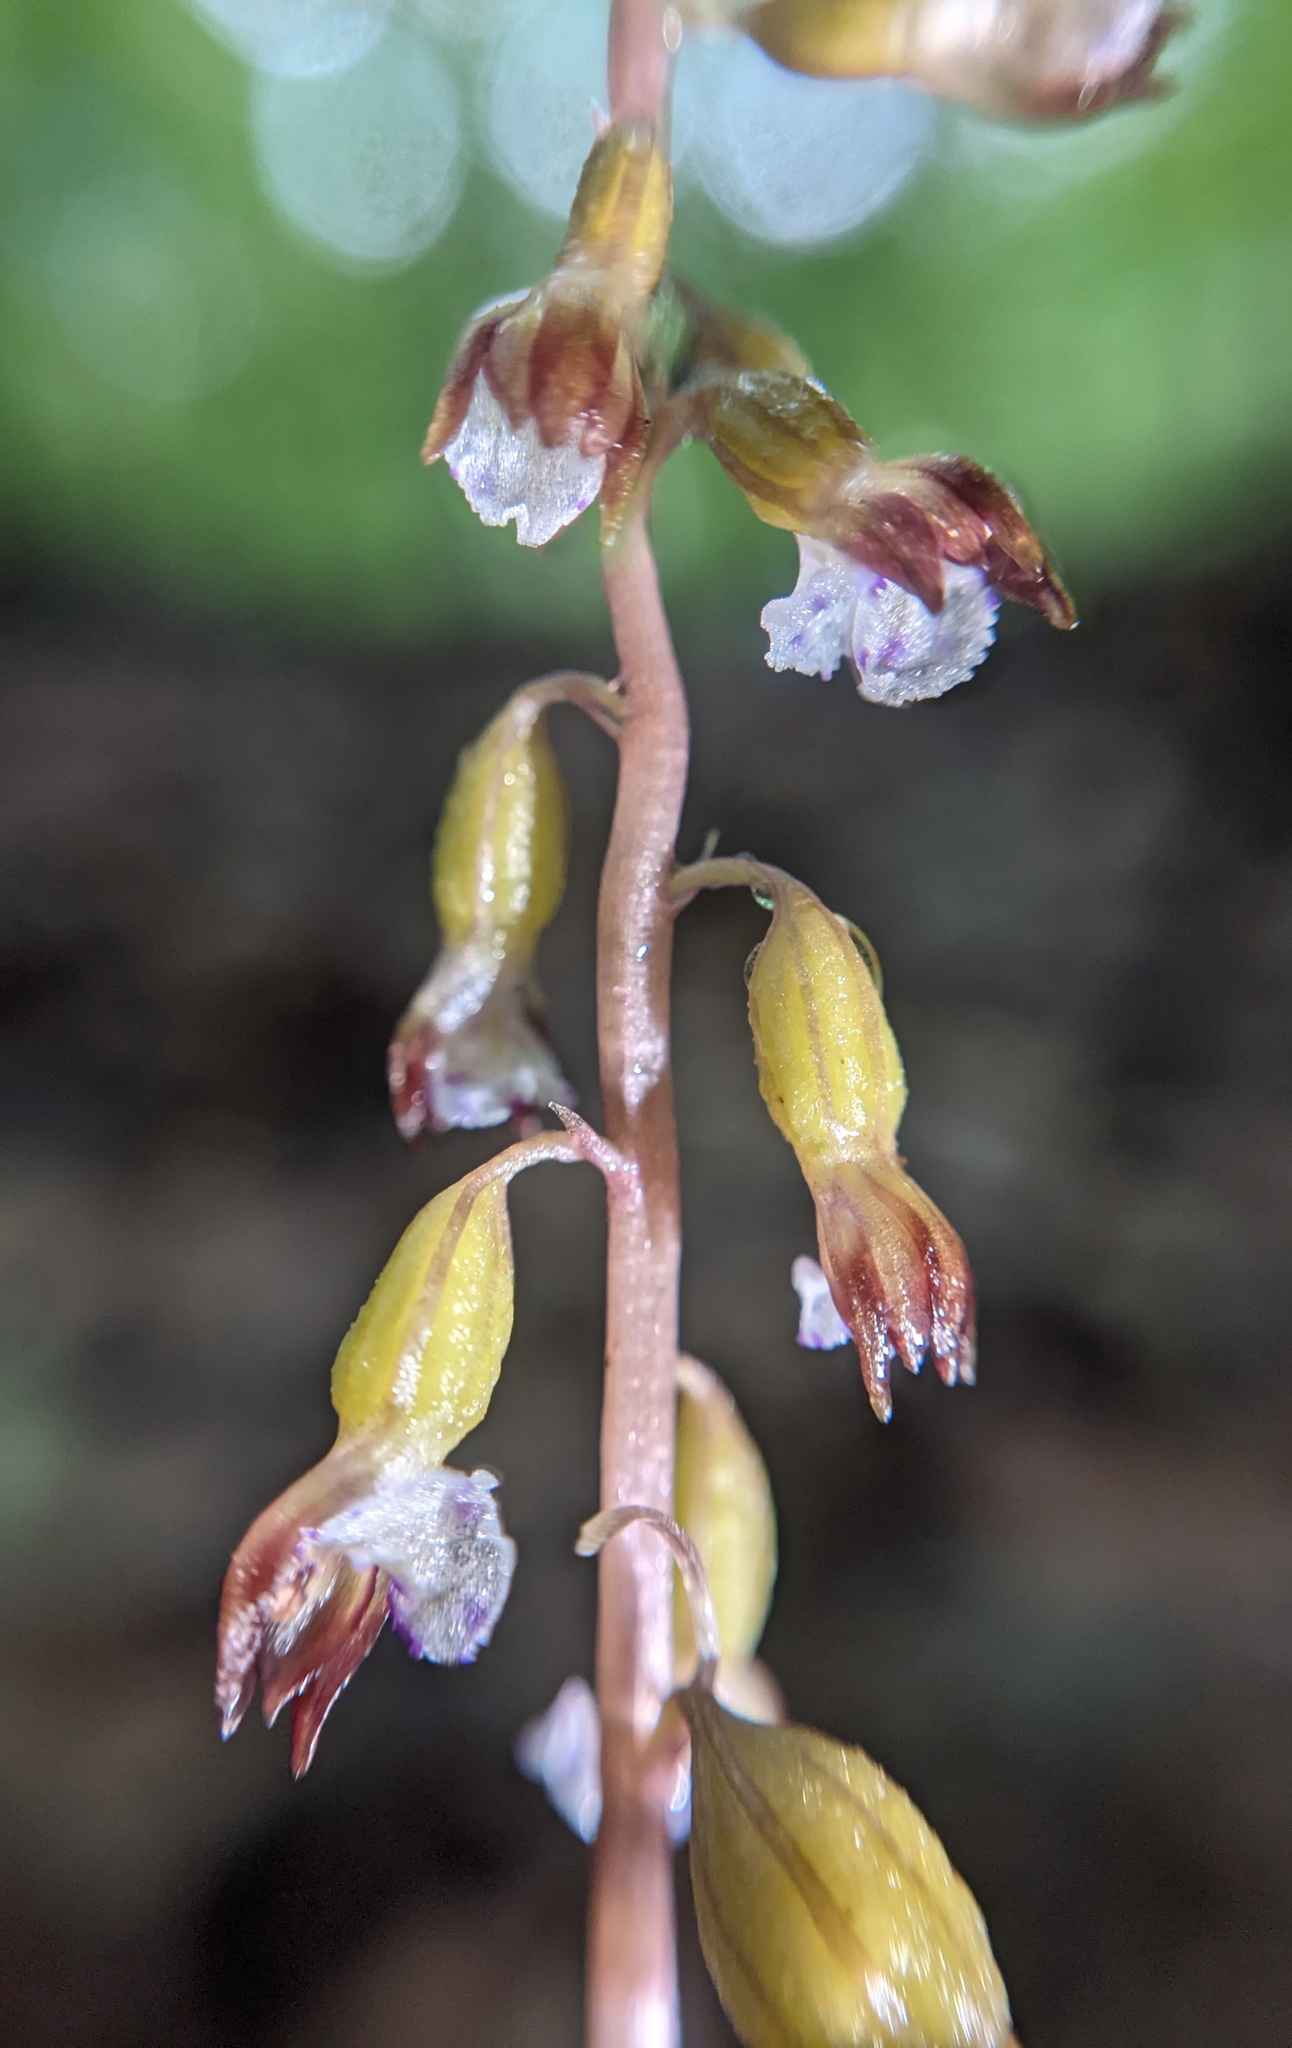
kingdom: Plantae
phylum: Tracheophyta
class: Liliopsida
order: Asparagales
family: Orchidaceae
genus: Corallorhiza
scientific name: Corallorhiza odontorhiza
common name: Autumn coralroot
